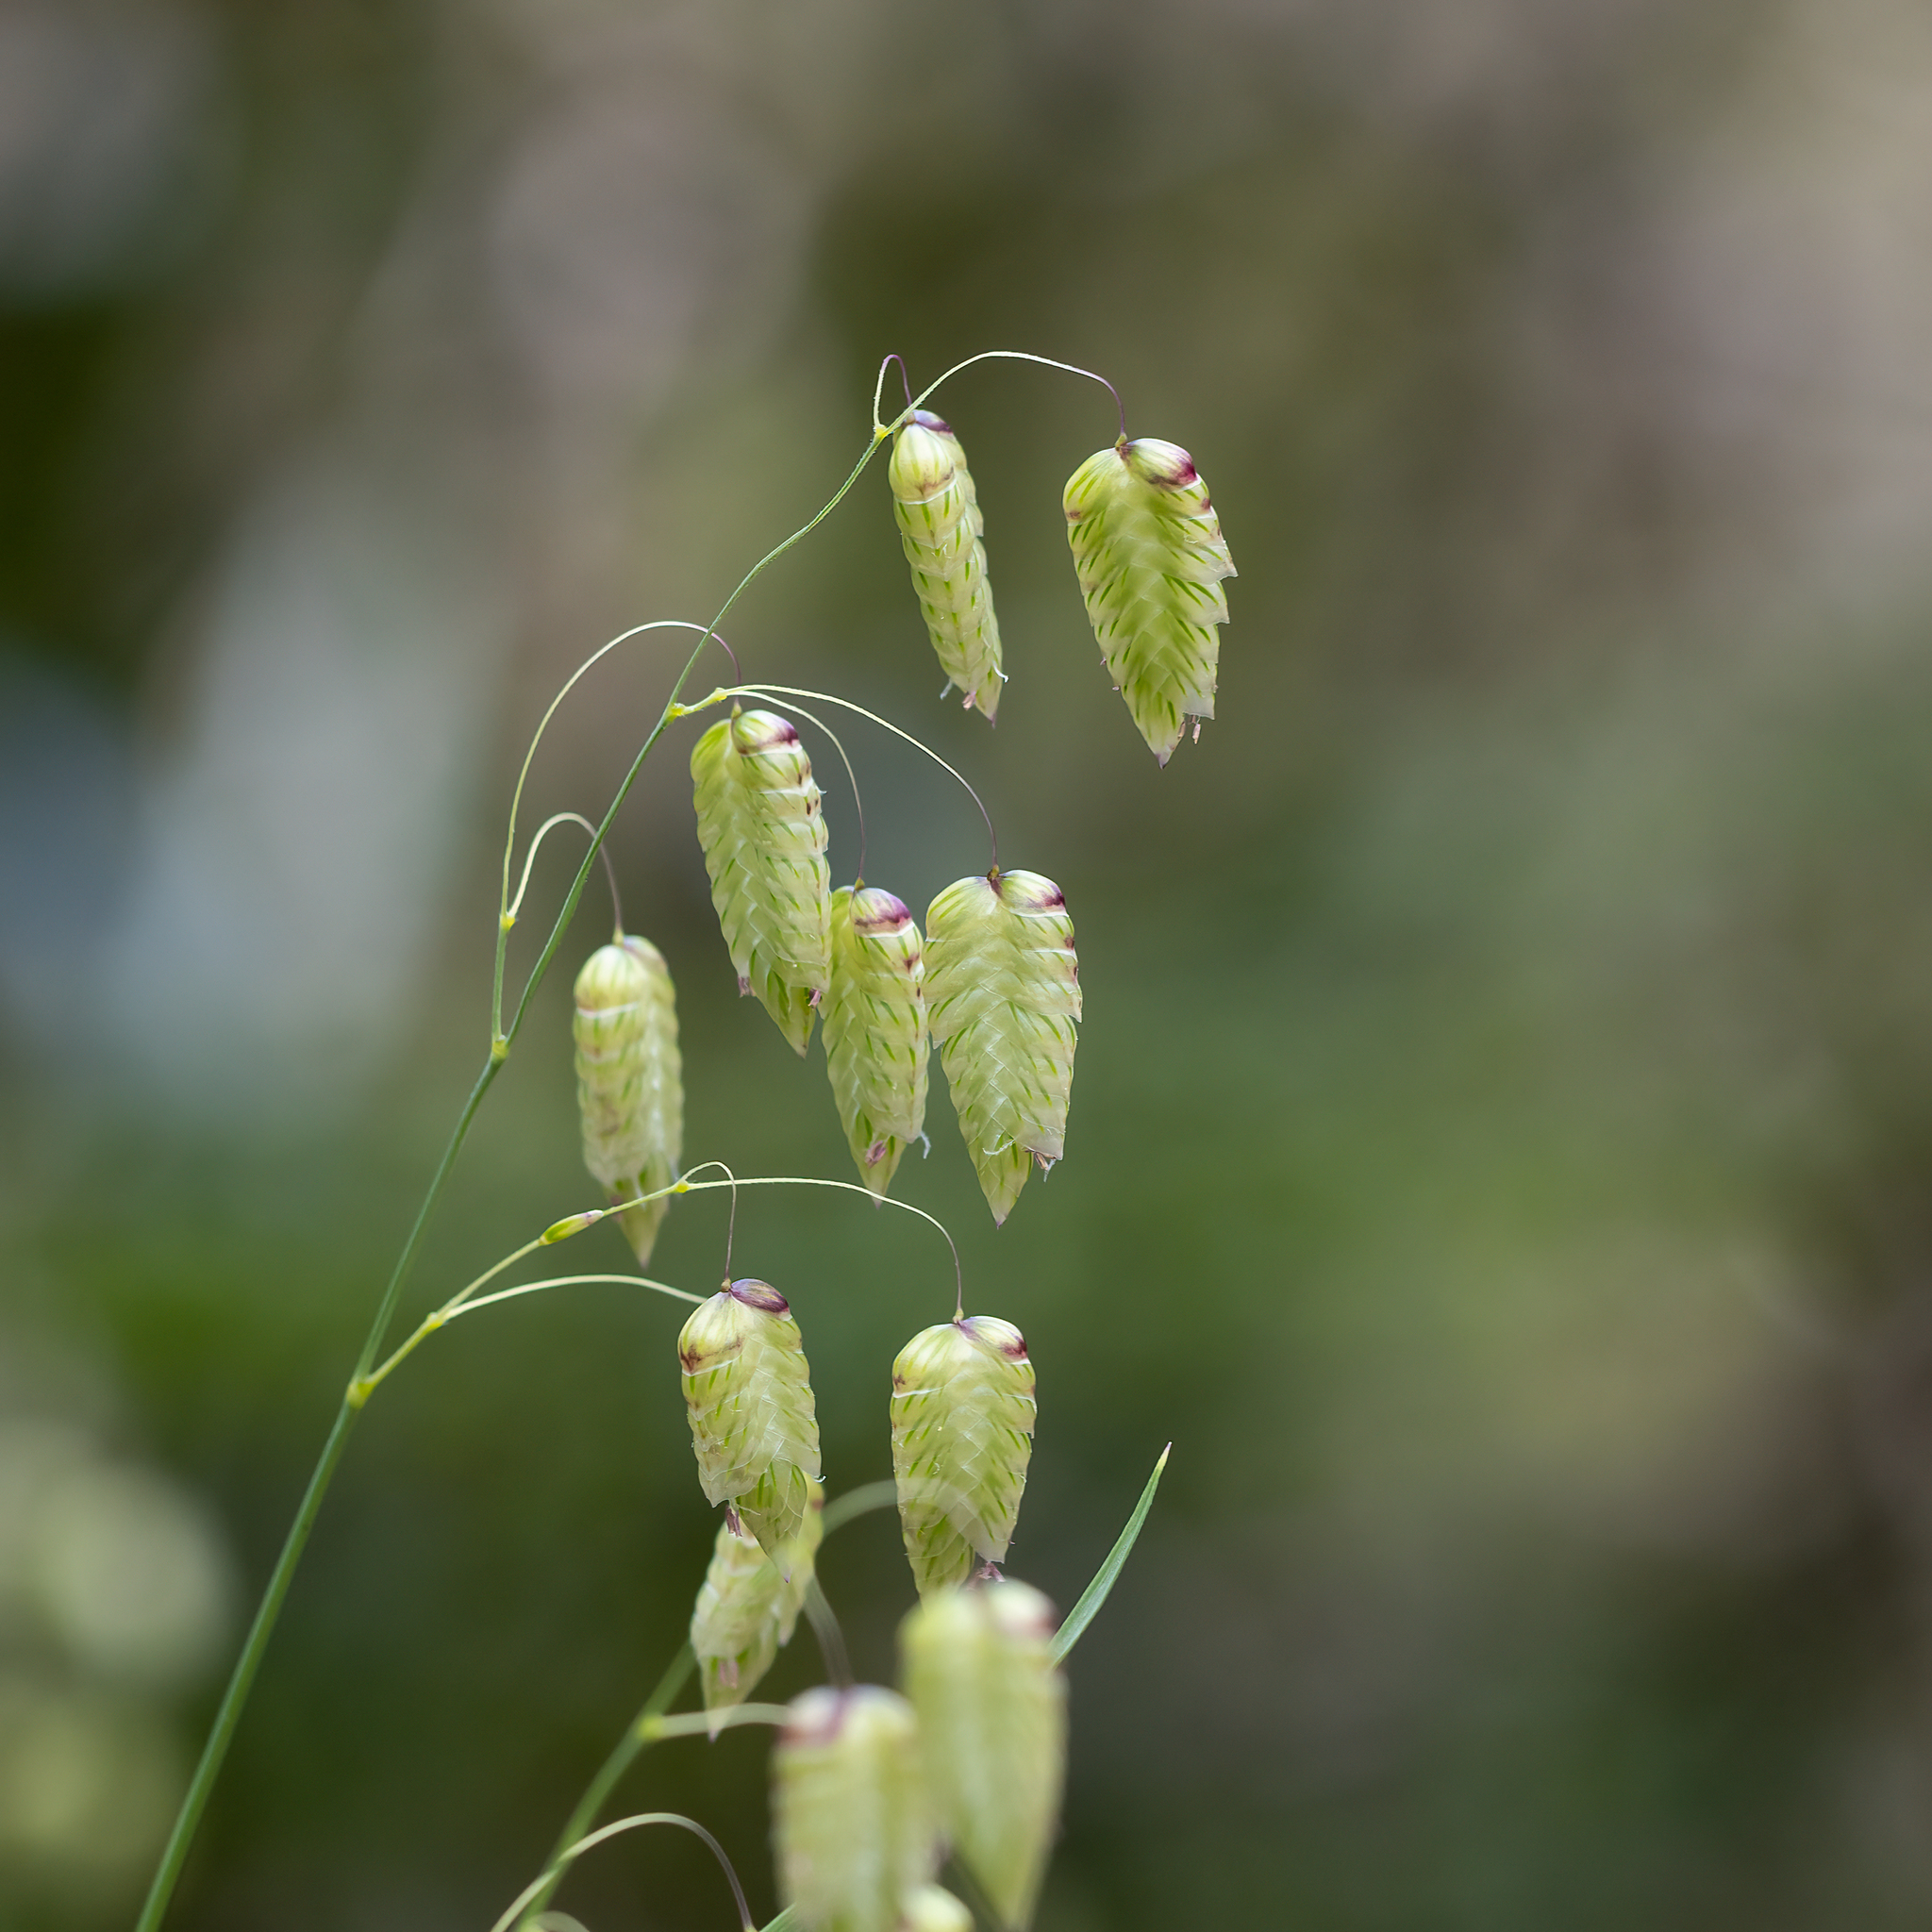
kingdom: Plantae
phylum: Tracheophyta
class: Liliopsida
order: Poales
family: Poaceae
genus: Briza
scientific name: Briza maxima
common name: Big quakinggrass
